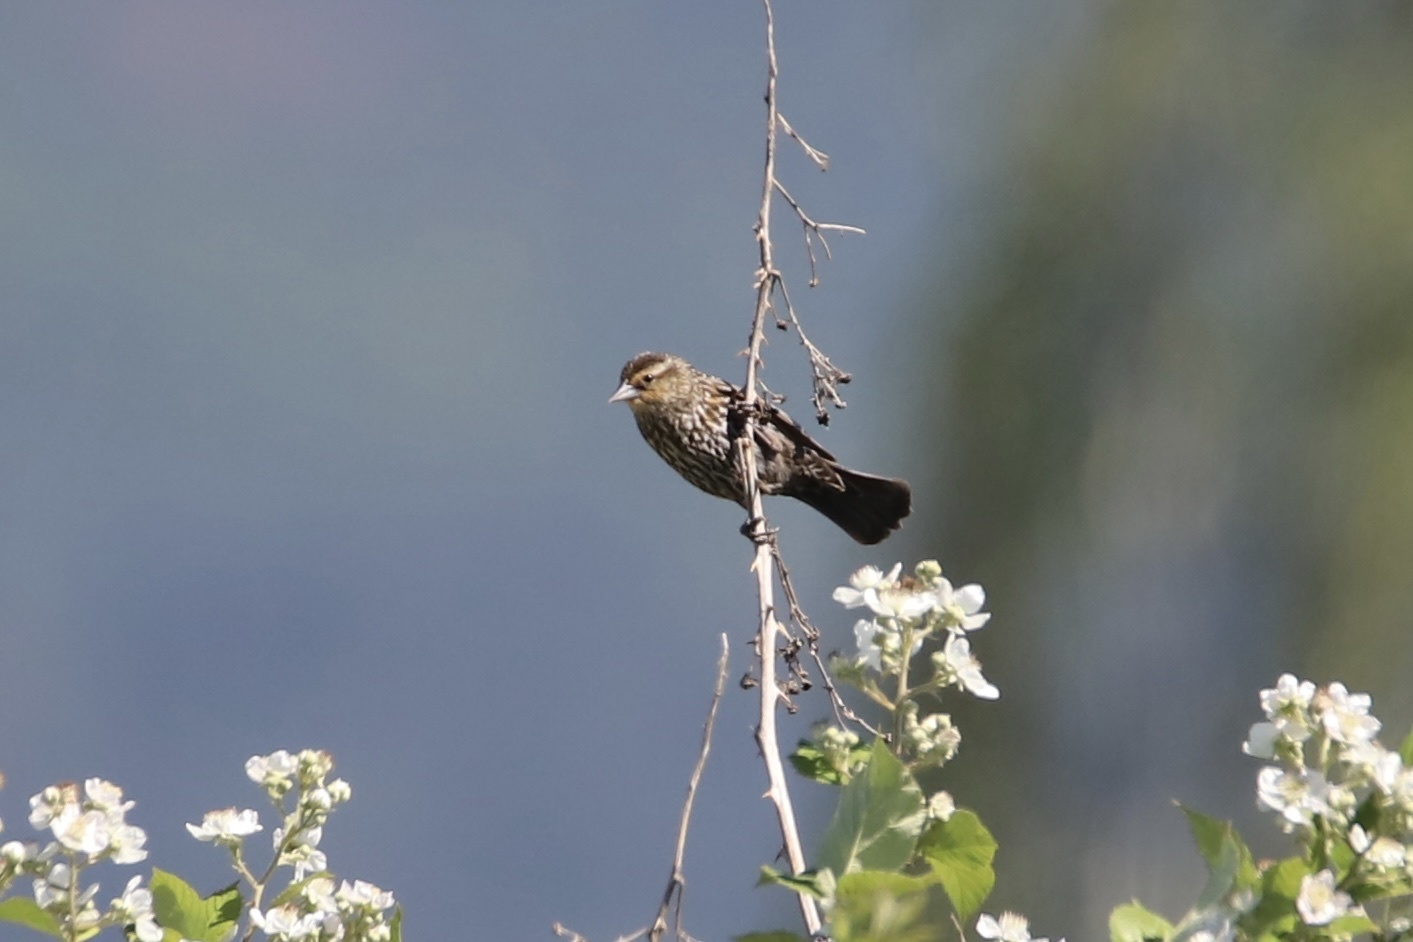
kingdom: Animalia
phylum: Chordata
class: Aves
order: Passeriformes
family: Icteridae
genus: Agelaius
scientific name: Agelaius phoeniceus
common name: Red-winged blackbird
